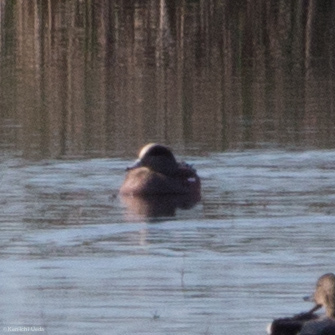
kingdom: Animalia
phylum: Chordata
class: Aves
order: Anseriformes
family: Anatidae
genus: Mareca
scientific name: Mareca americana
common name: American wigeon
